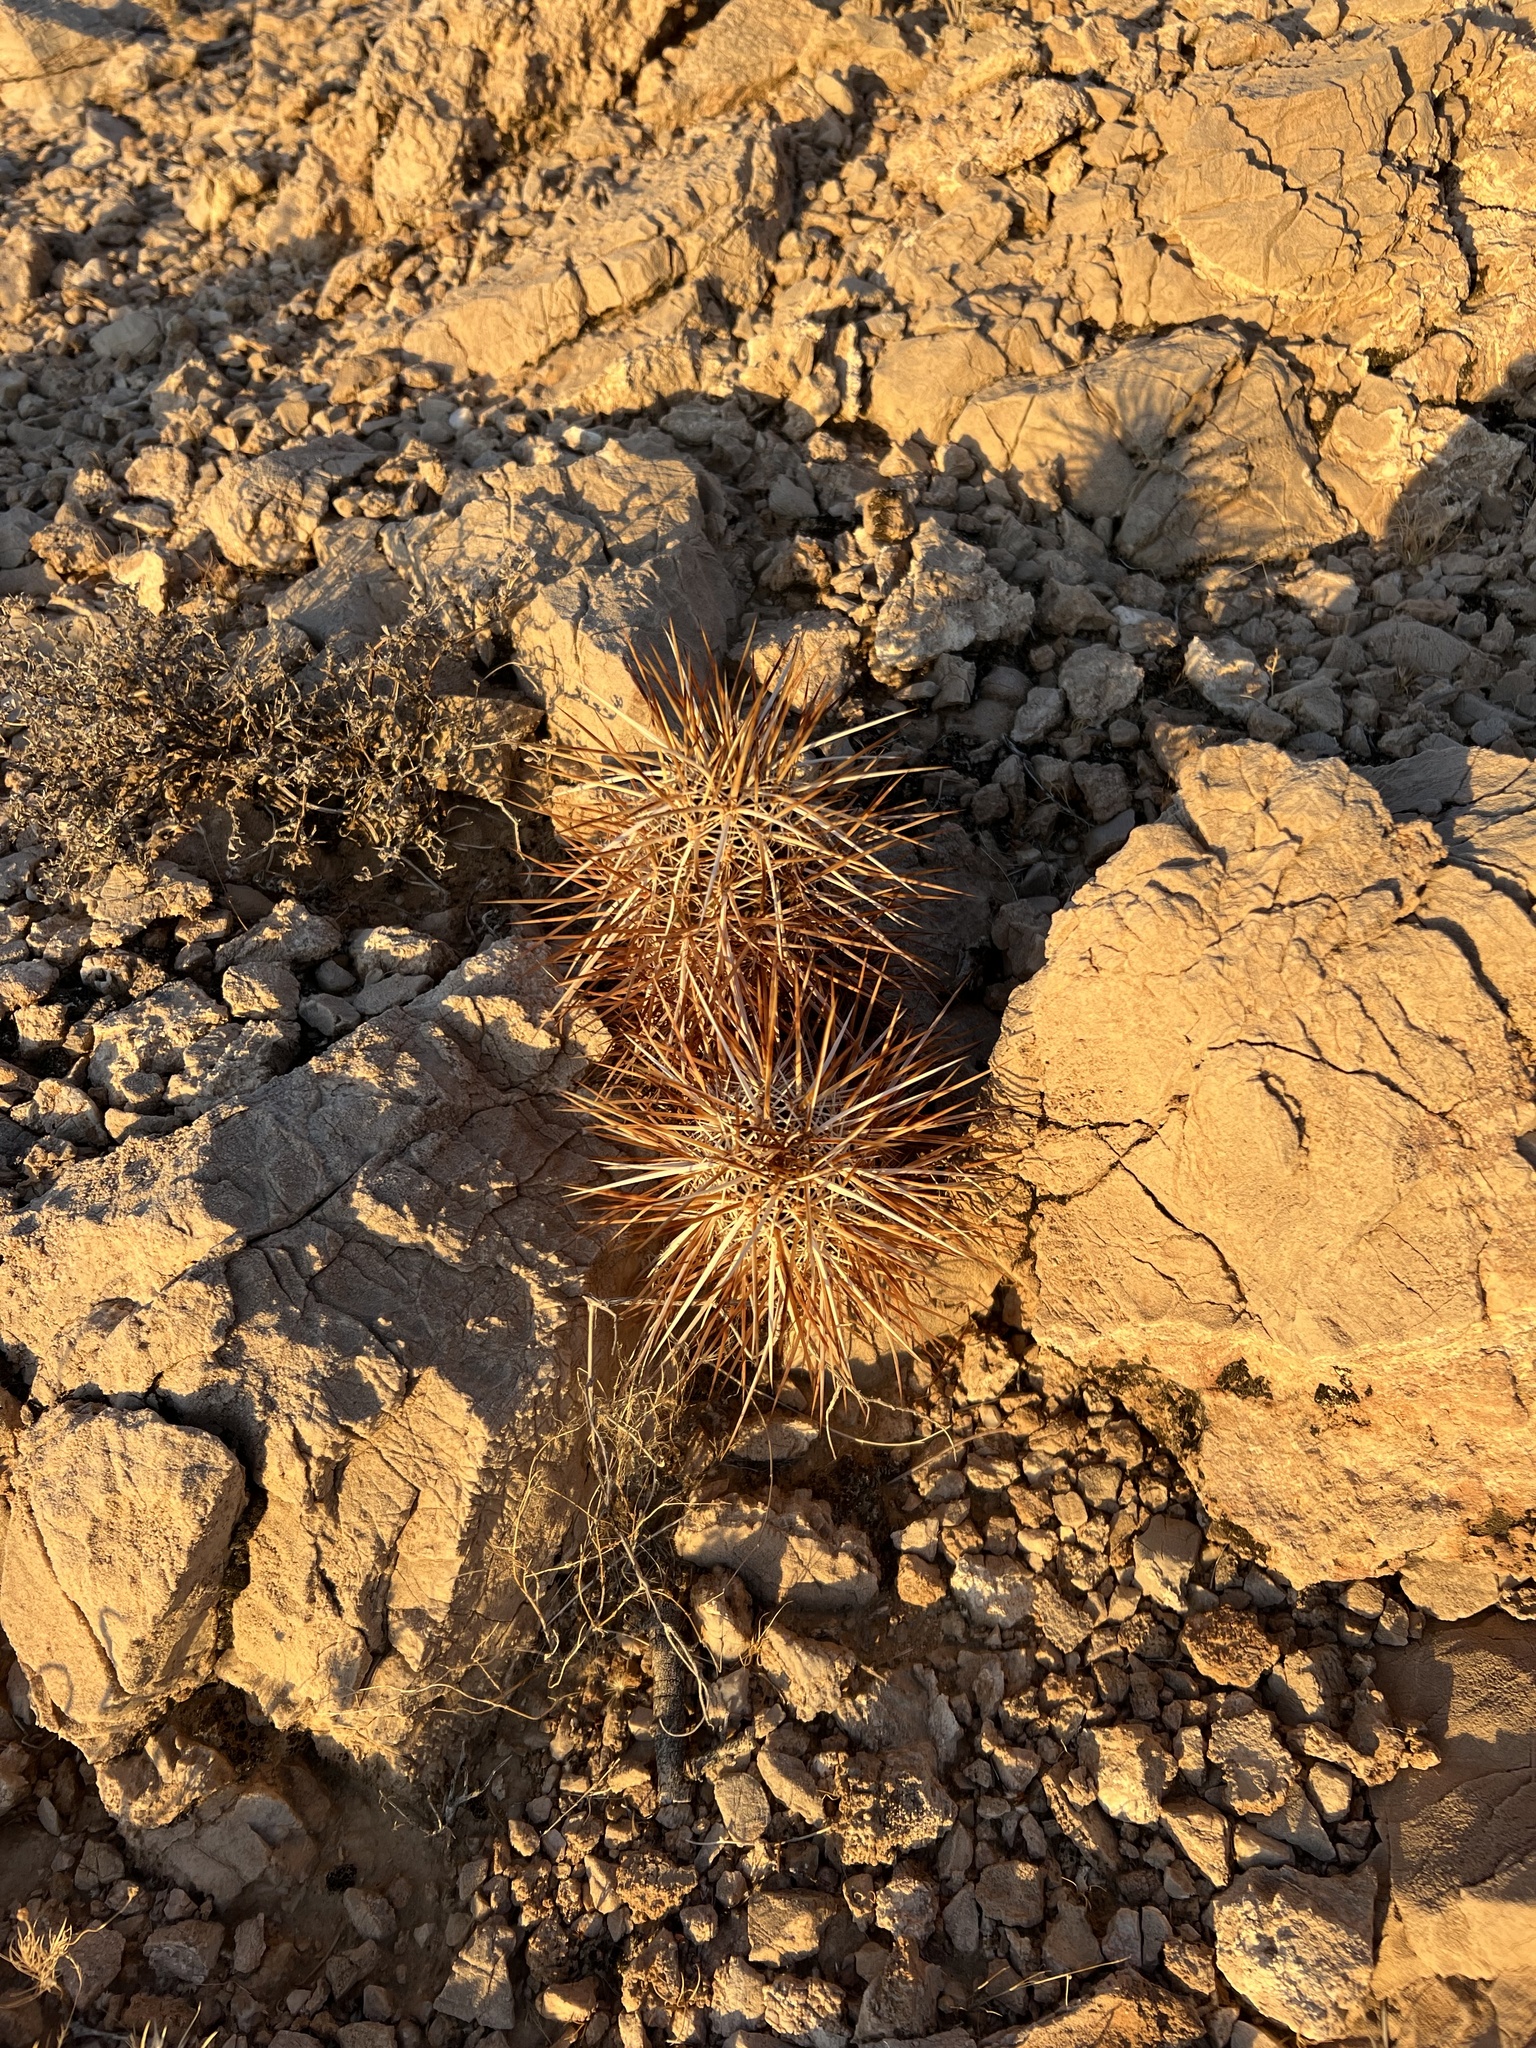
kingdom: Plantae
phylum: Tracheophyta
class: Magnoliopsida
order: Caryophyllales
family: Cactaceae
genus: Echinocereus
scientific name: Echinocereus engelmannii
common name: Engelmann's hedgehog cactus
